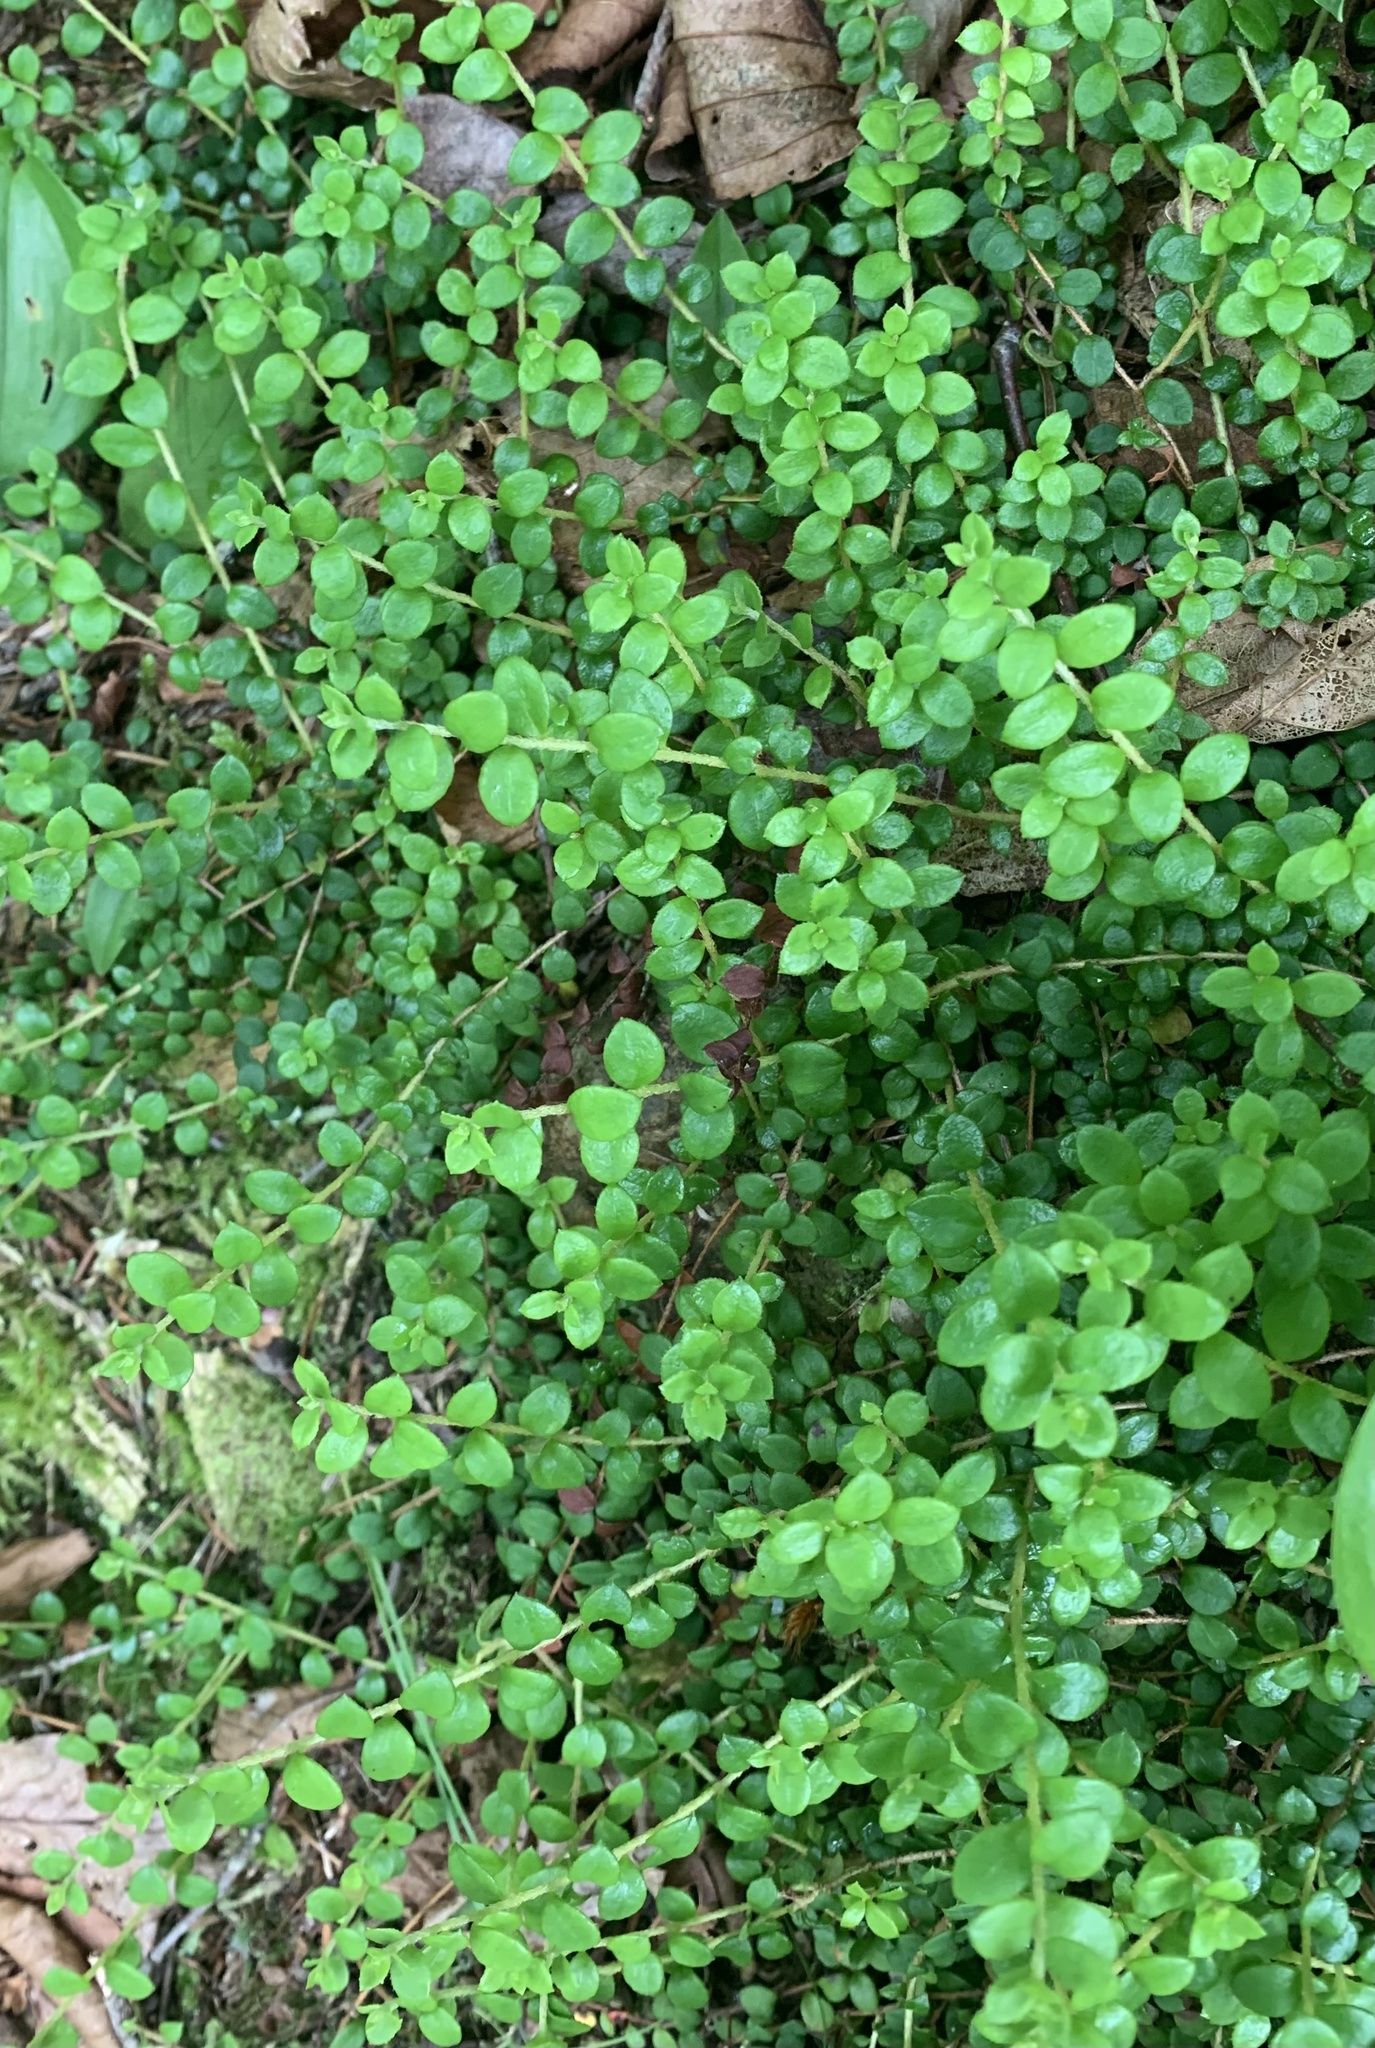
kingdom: Plantae
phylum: Tracheophyta
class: Magnoliopsida
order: Ericales
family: Ericaceae
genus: Gaultheria
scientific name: Gaultheria hispidula
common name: Cancer wintergreen
